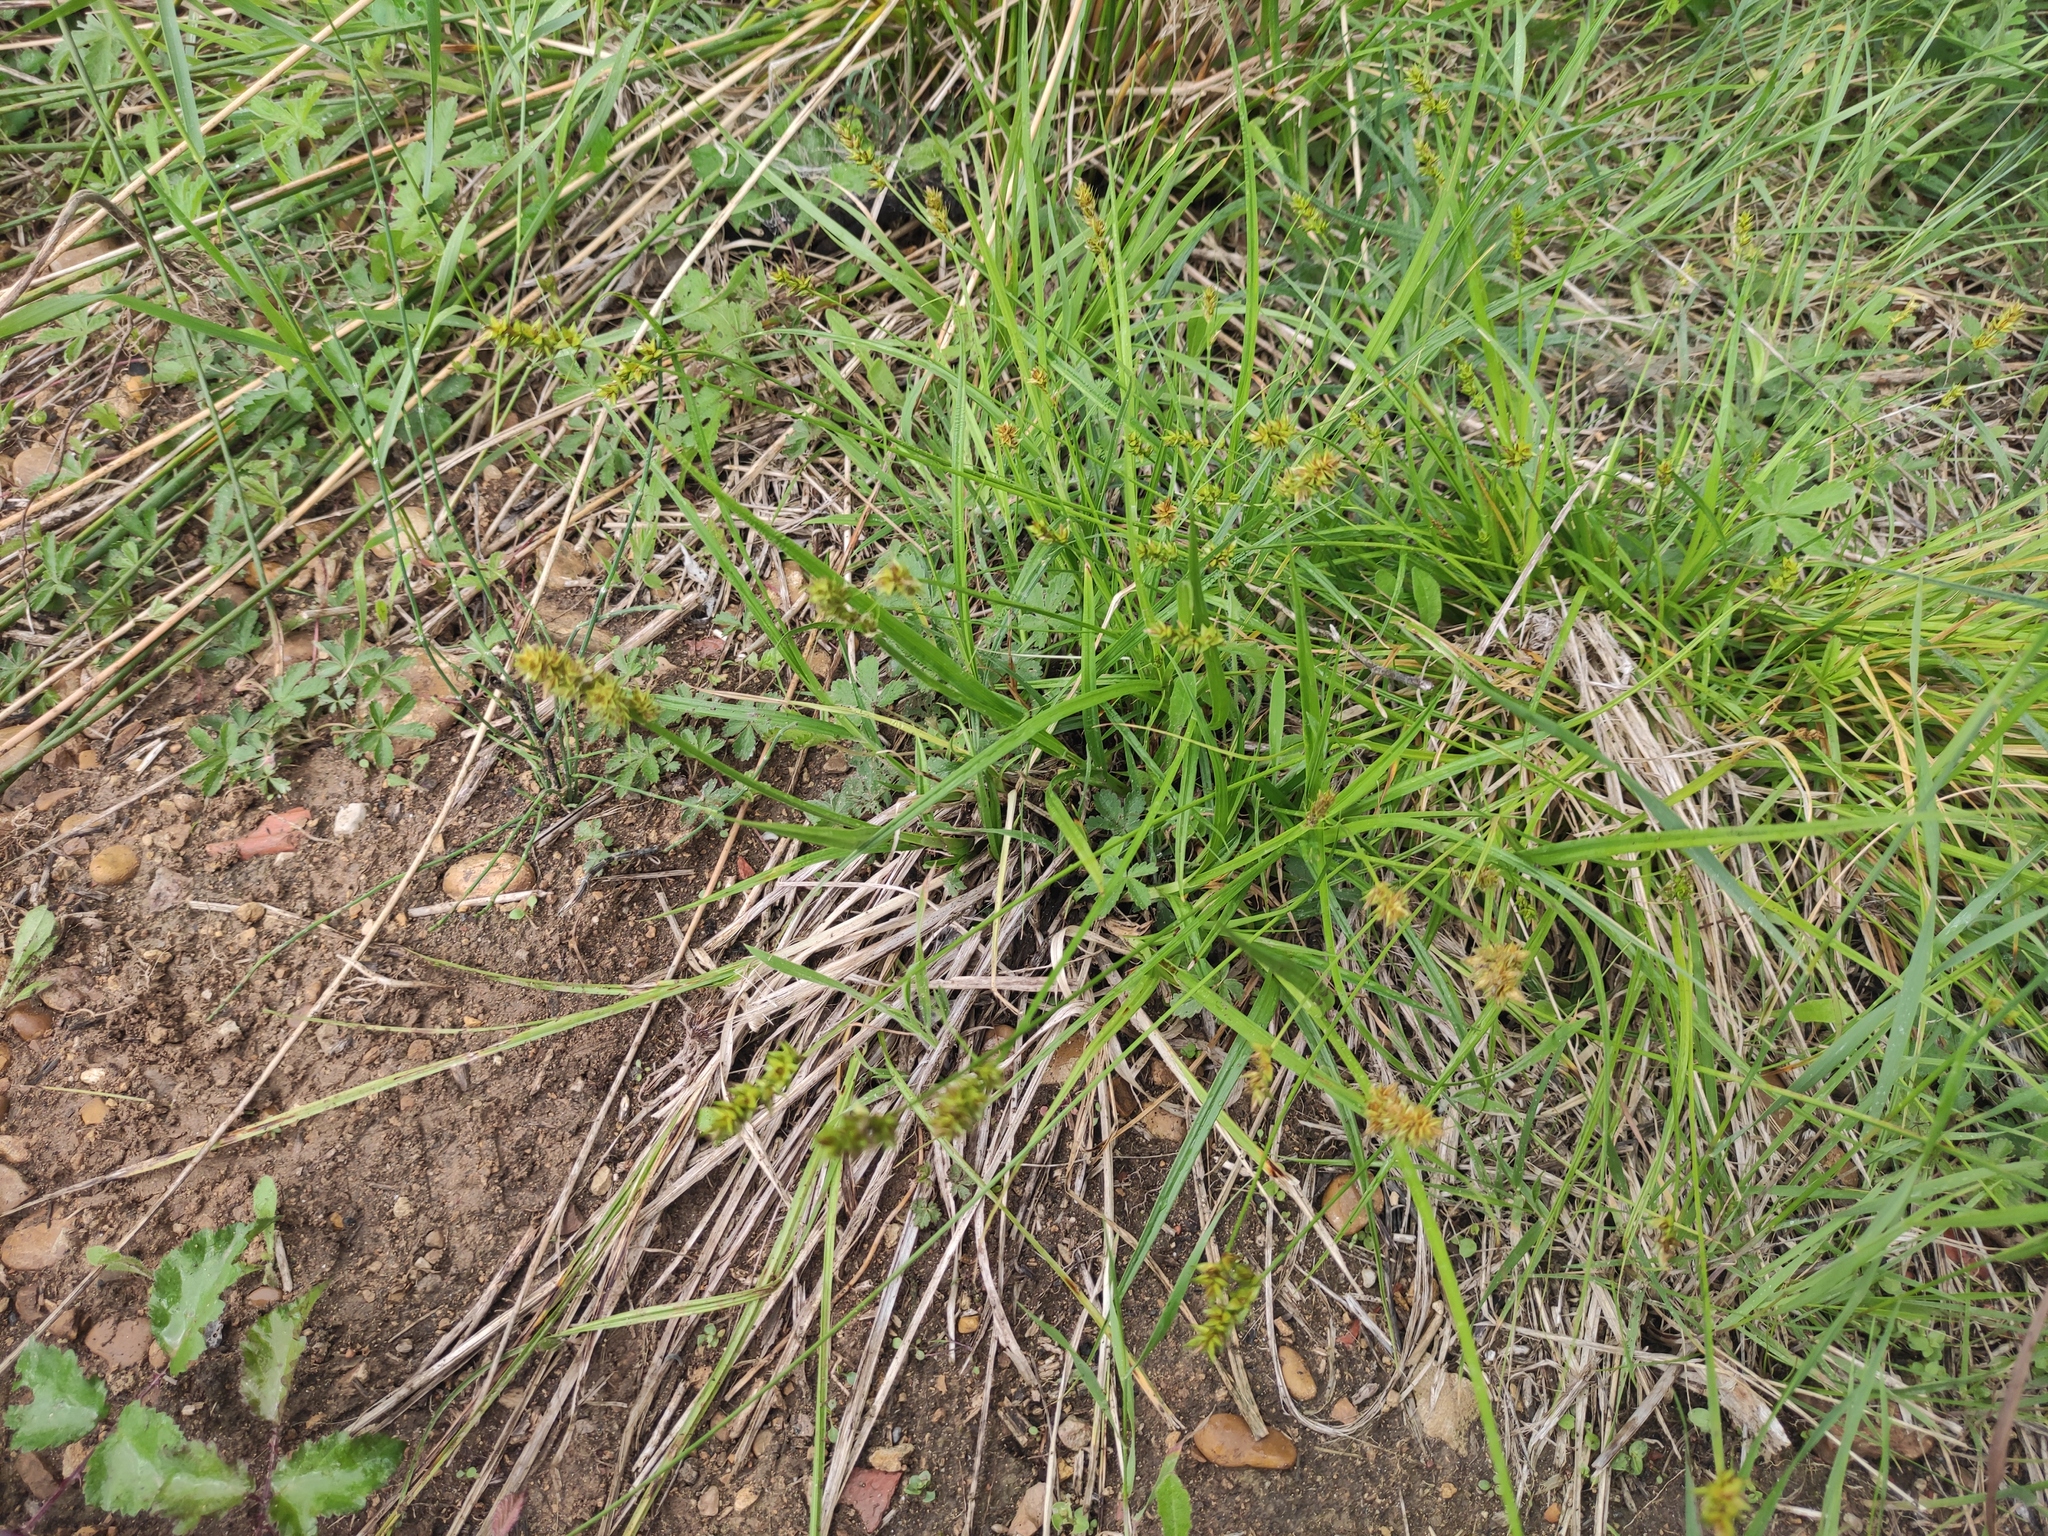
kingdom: Plantae
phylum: Tracheophyta
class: Liliopsida
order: Poales
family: Cyperaceae
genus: Carex
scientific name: Carex otrubae
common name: False fox-sedge
